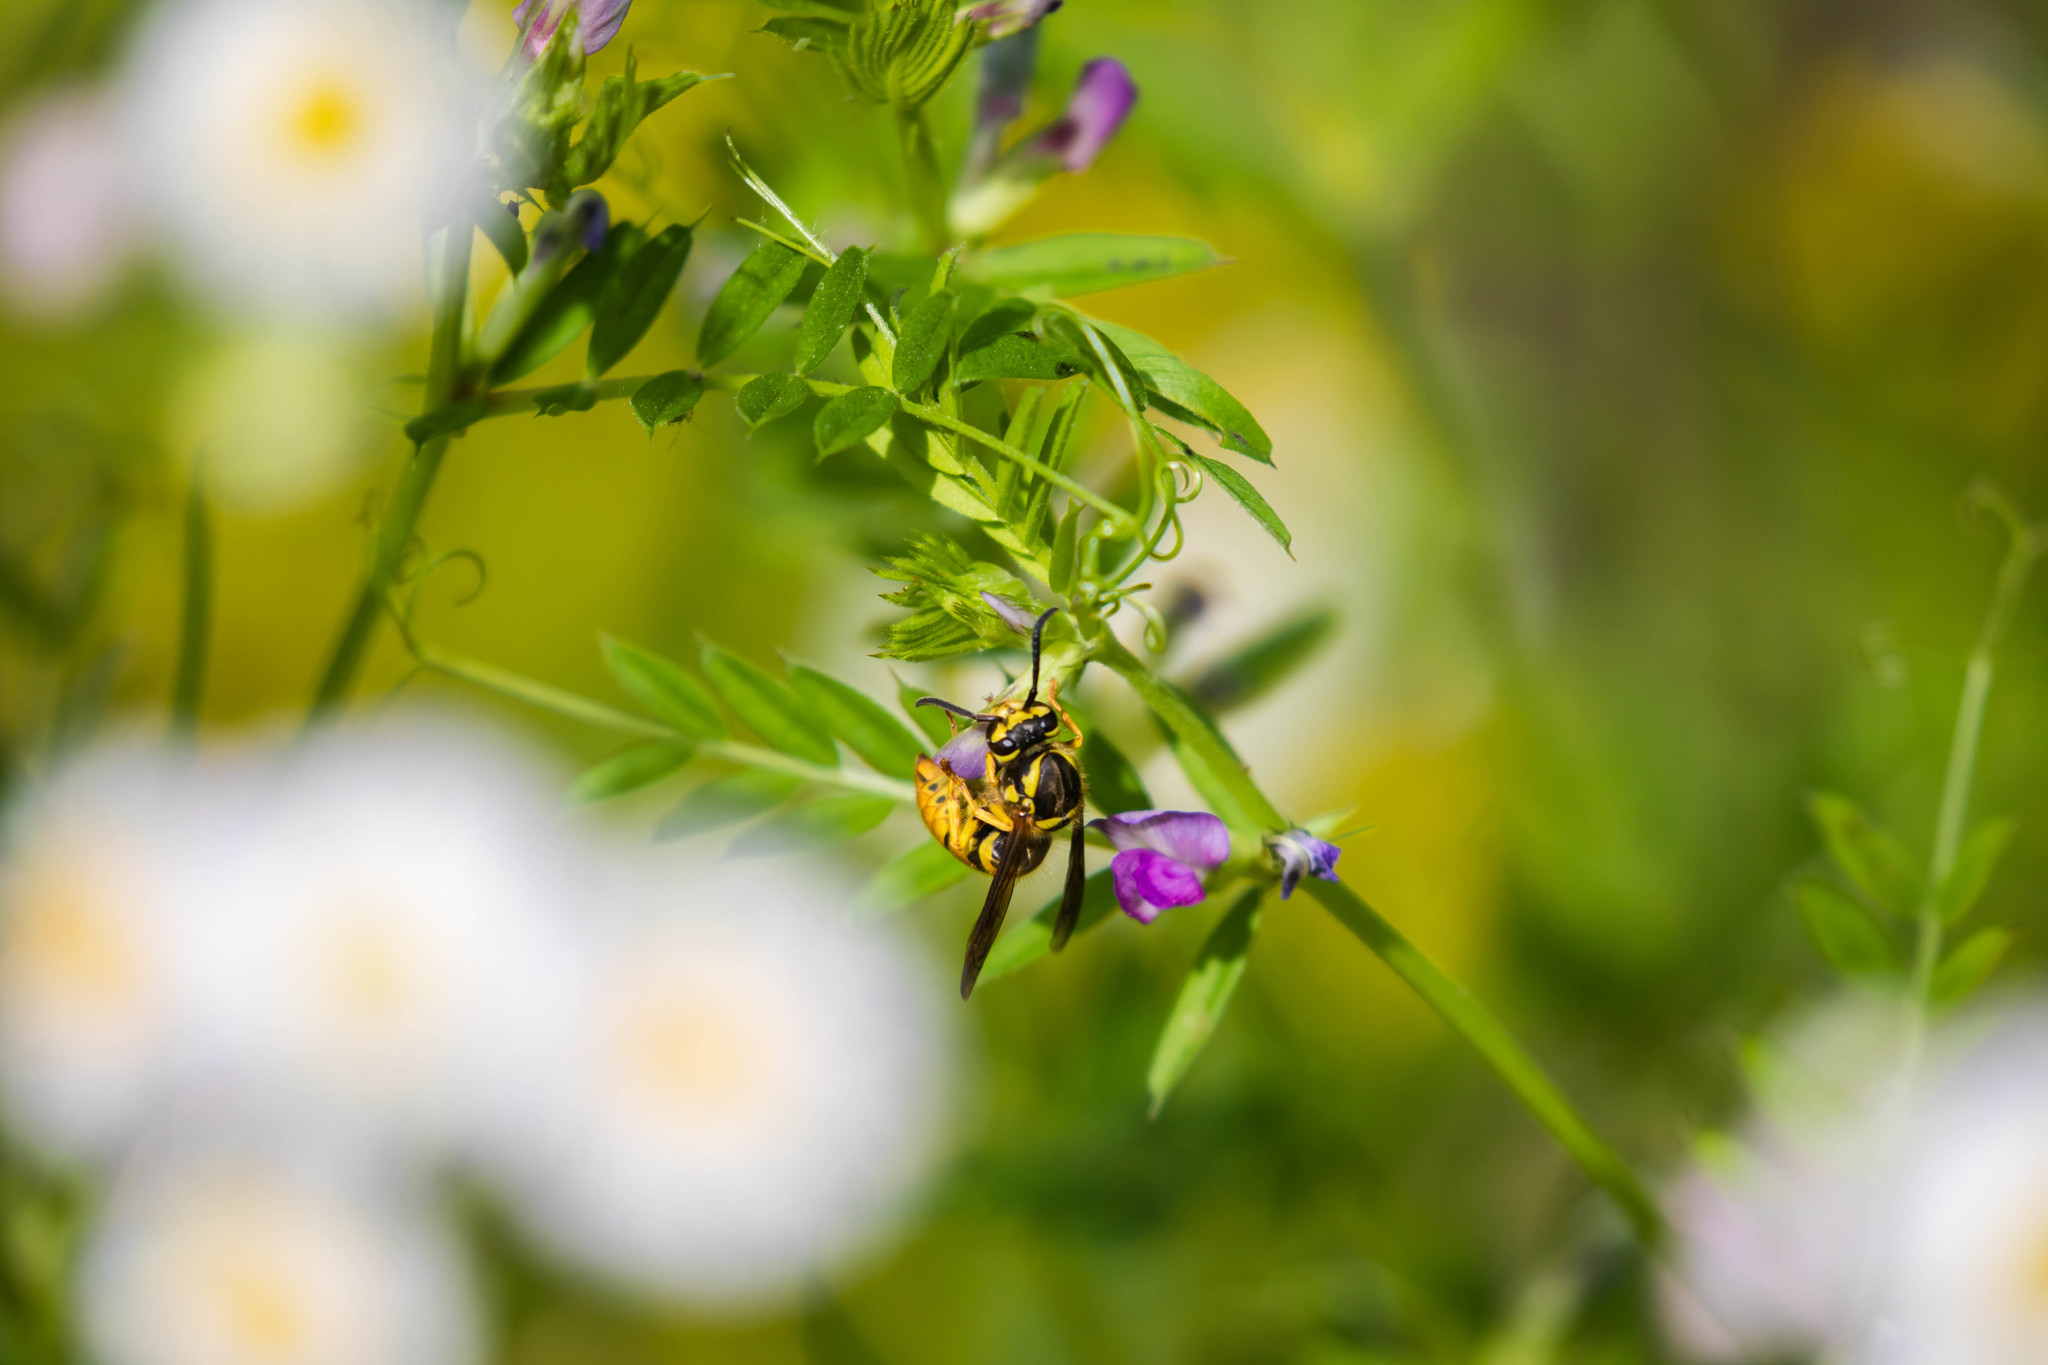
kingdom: Animalia
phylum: Arthropoda
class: Insecta
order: Hymenoptera
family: Vespidae
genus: Vespula
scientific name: Vespula maculifrons
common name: Eastern yellowjacket
